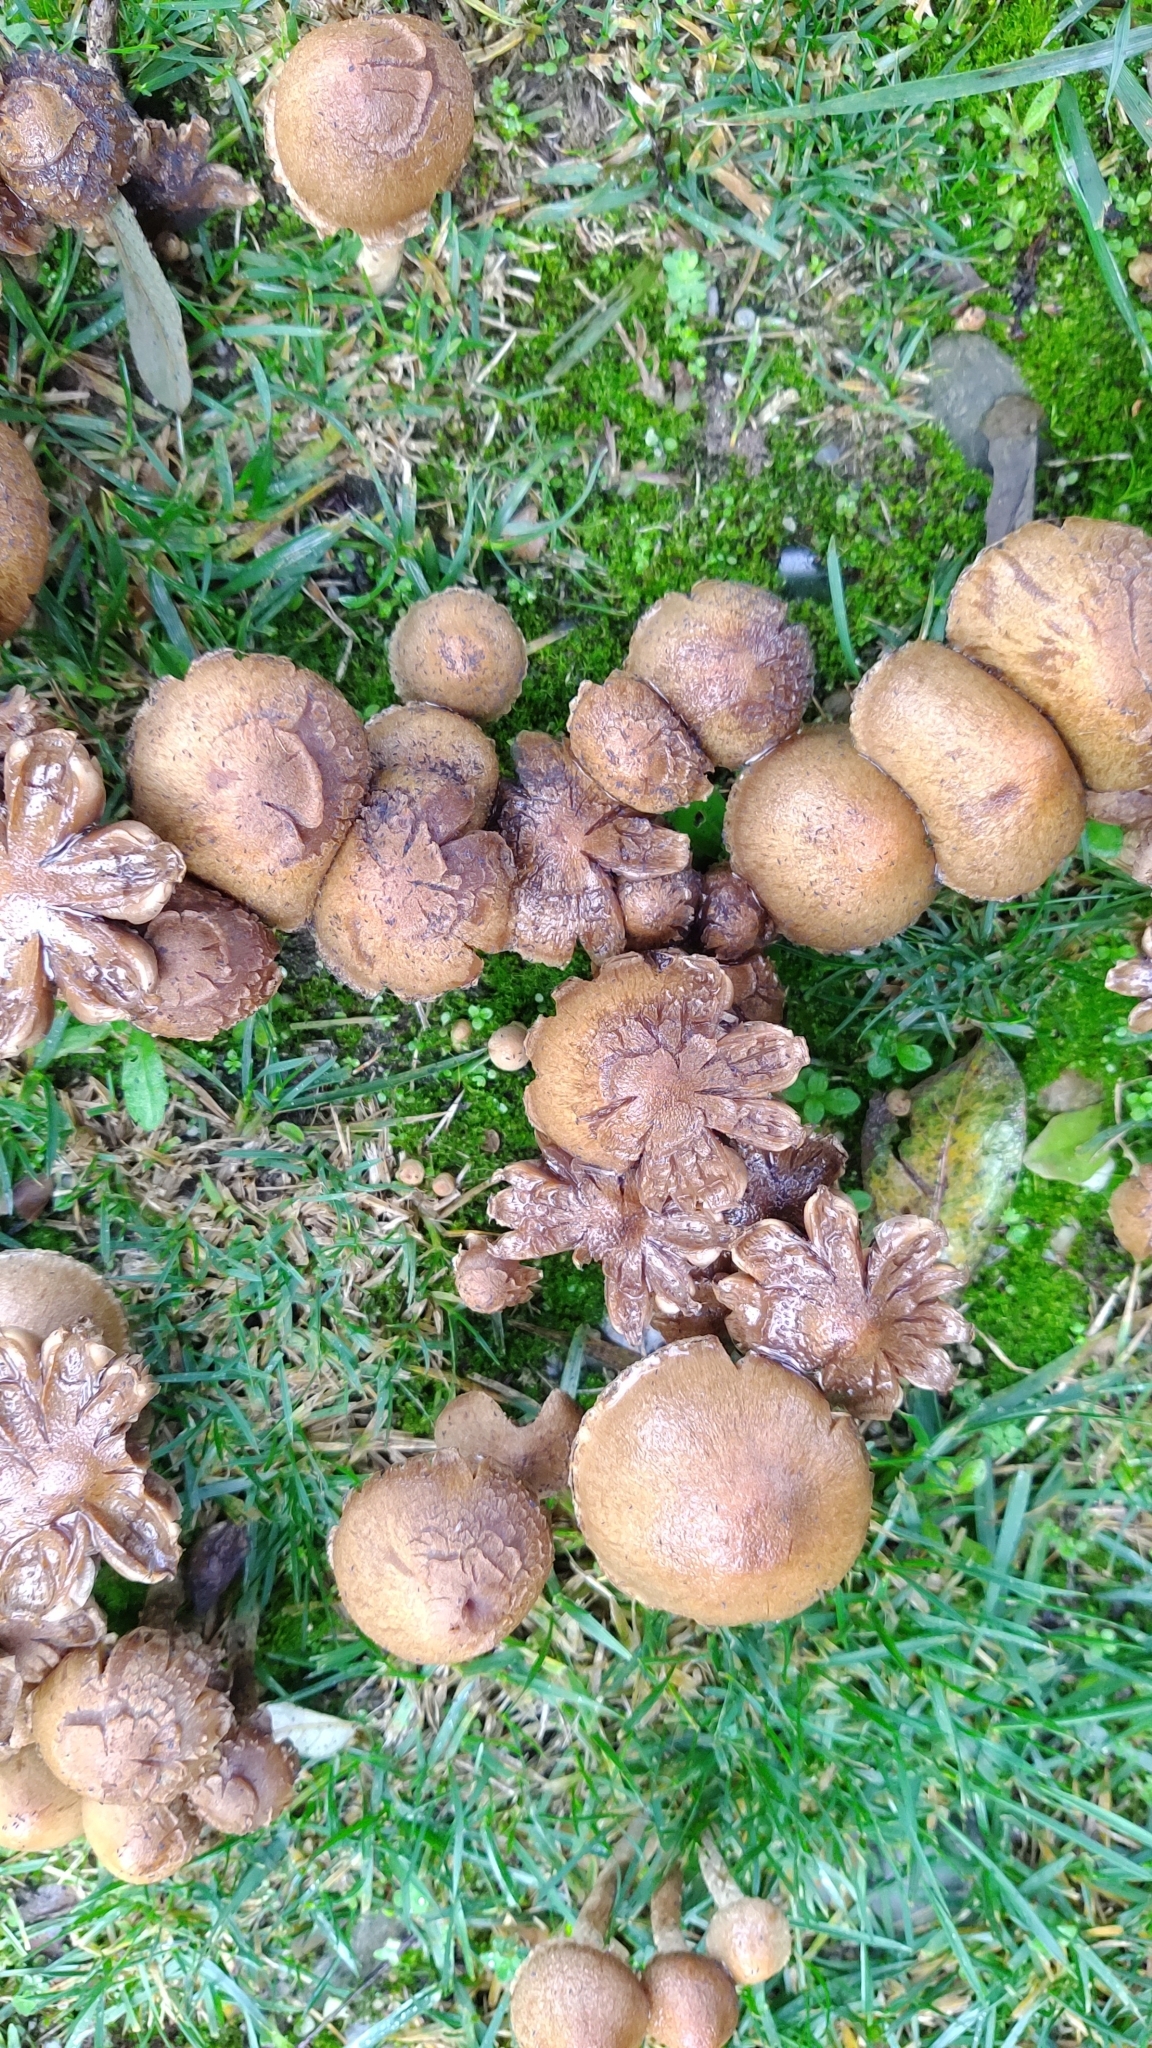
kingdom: Fungi
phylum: Basidiomycota
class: Agaricomycetes
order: Agaricales
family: Psathyrellaceae
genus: Lacrymaria
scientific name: Lacrymaria lacrymabunda
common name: Weeping widow
